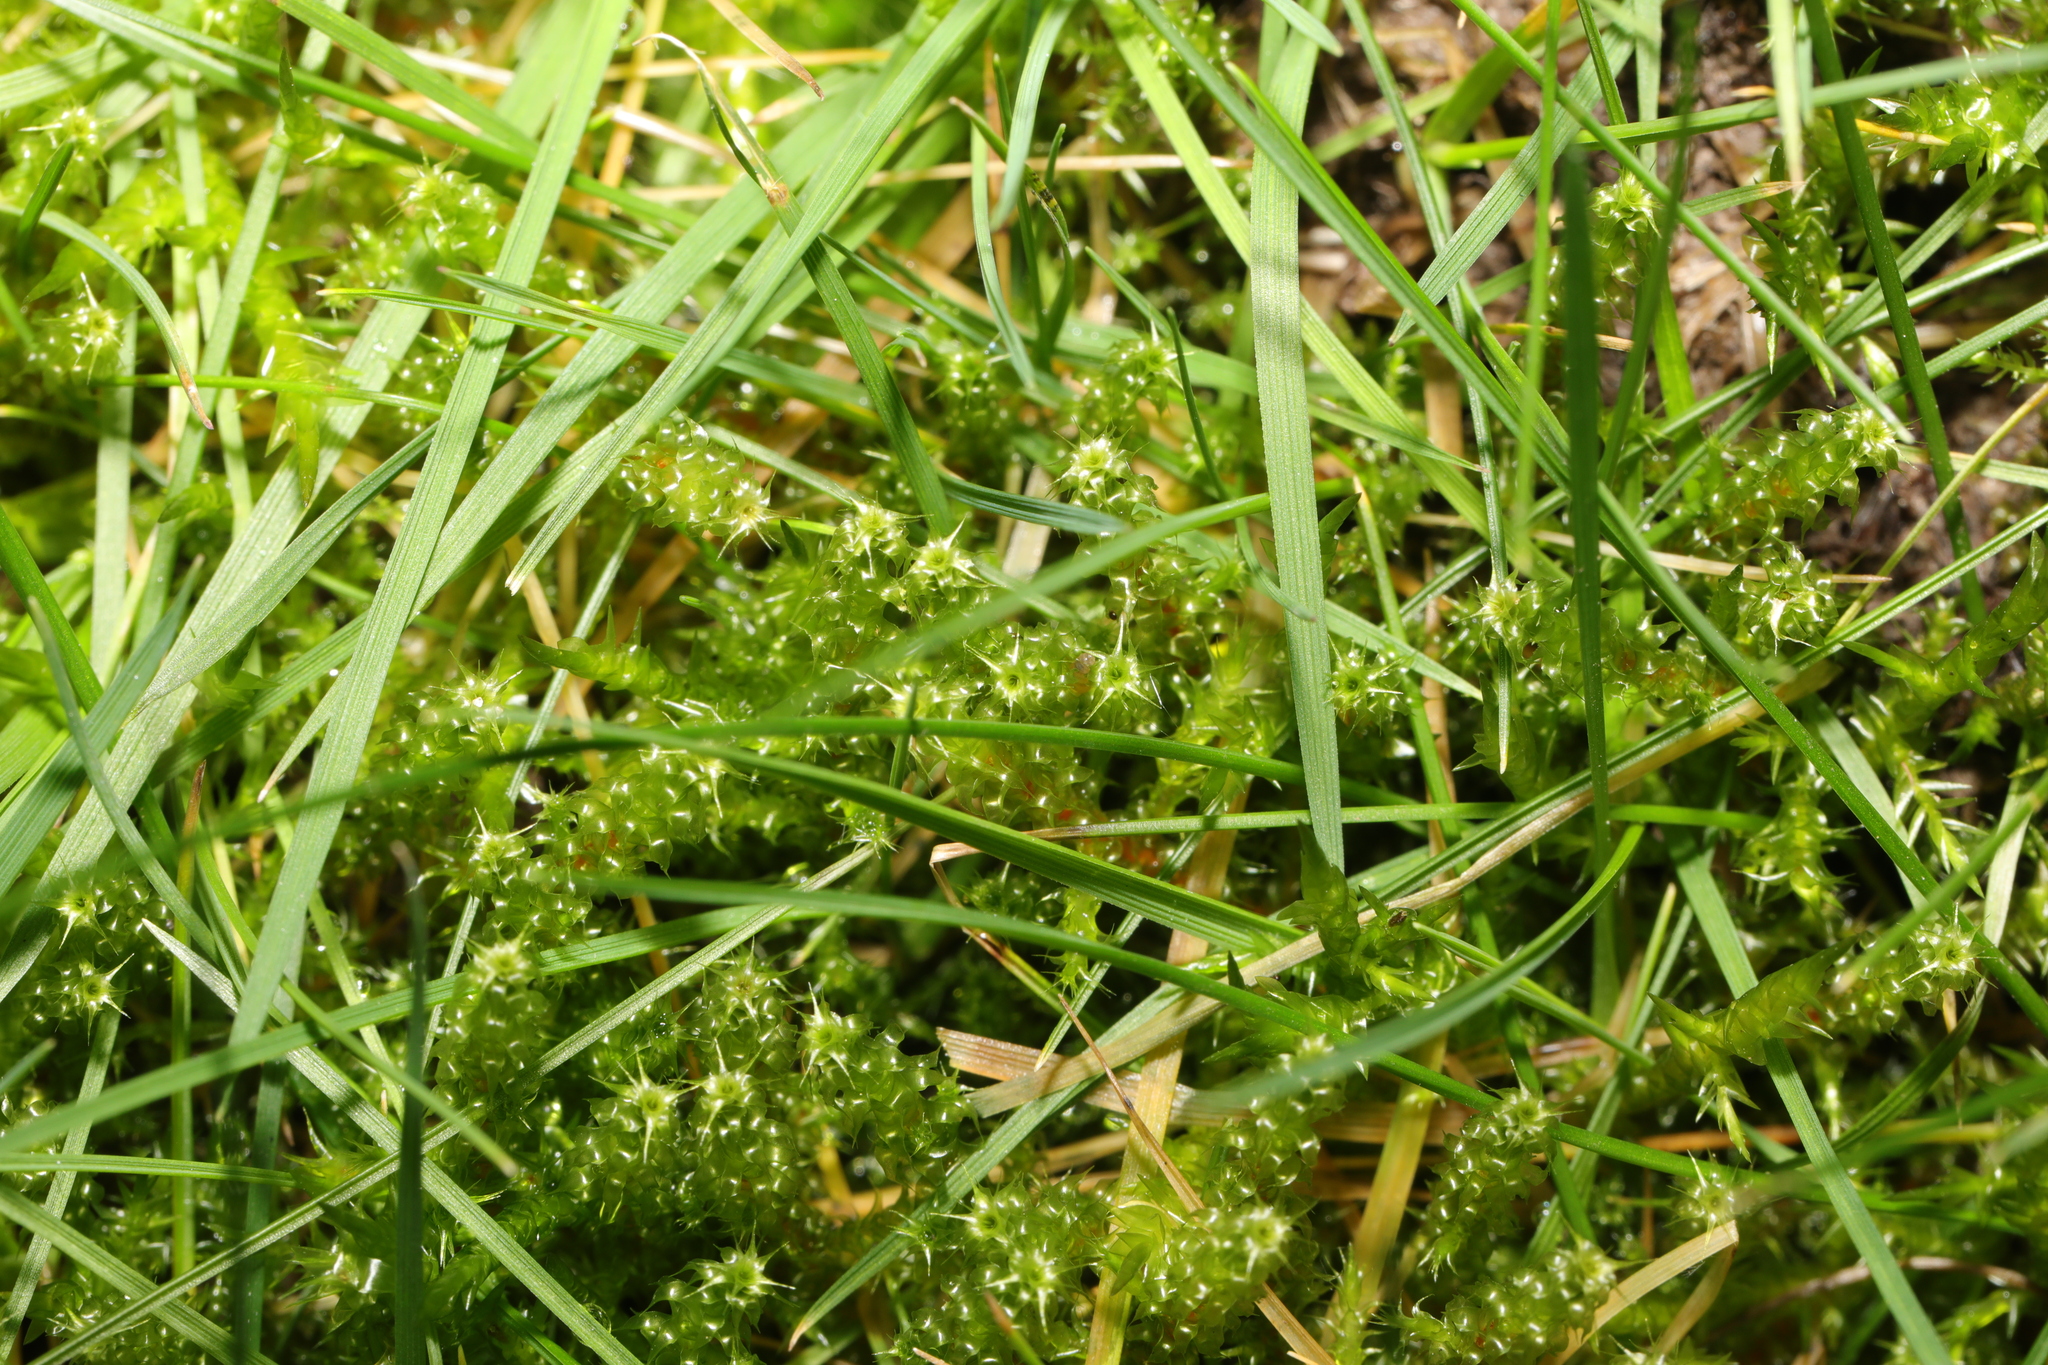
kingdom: Plantae
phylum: Bryophyta
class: Bryopsida
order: Hypnales
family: Hylocomiaceae
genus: Rhytidiadelphus
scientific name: Rhytidiadelphus squarrosus
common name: Springy turf-moss
